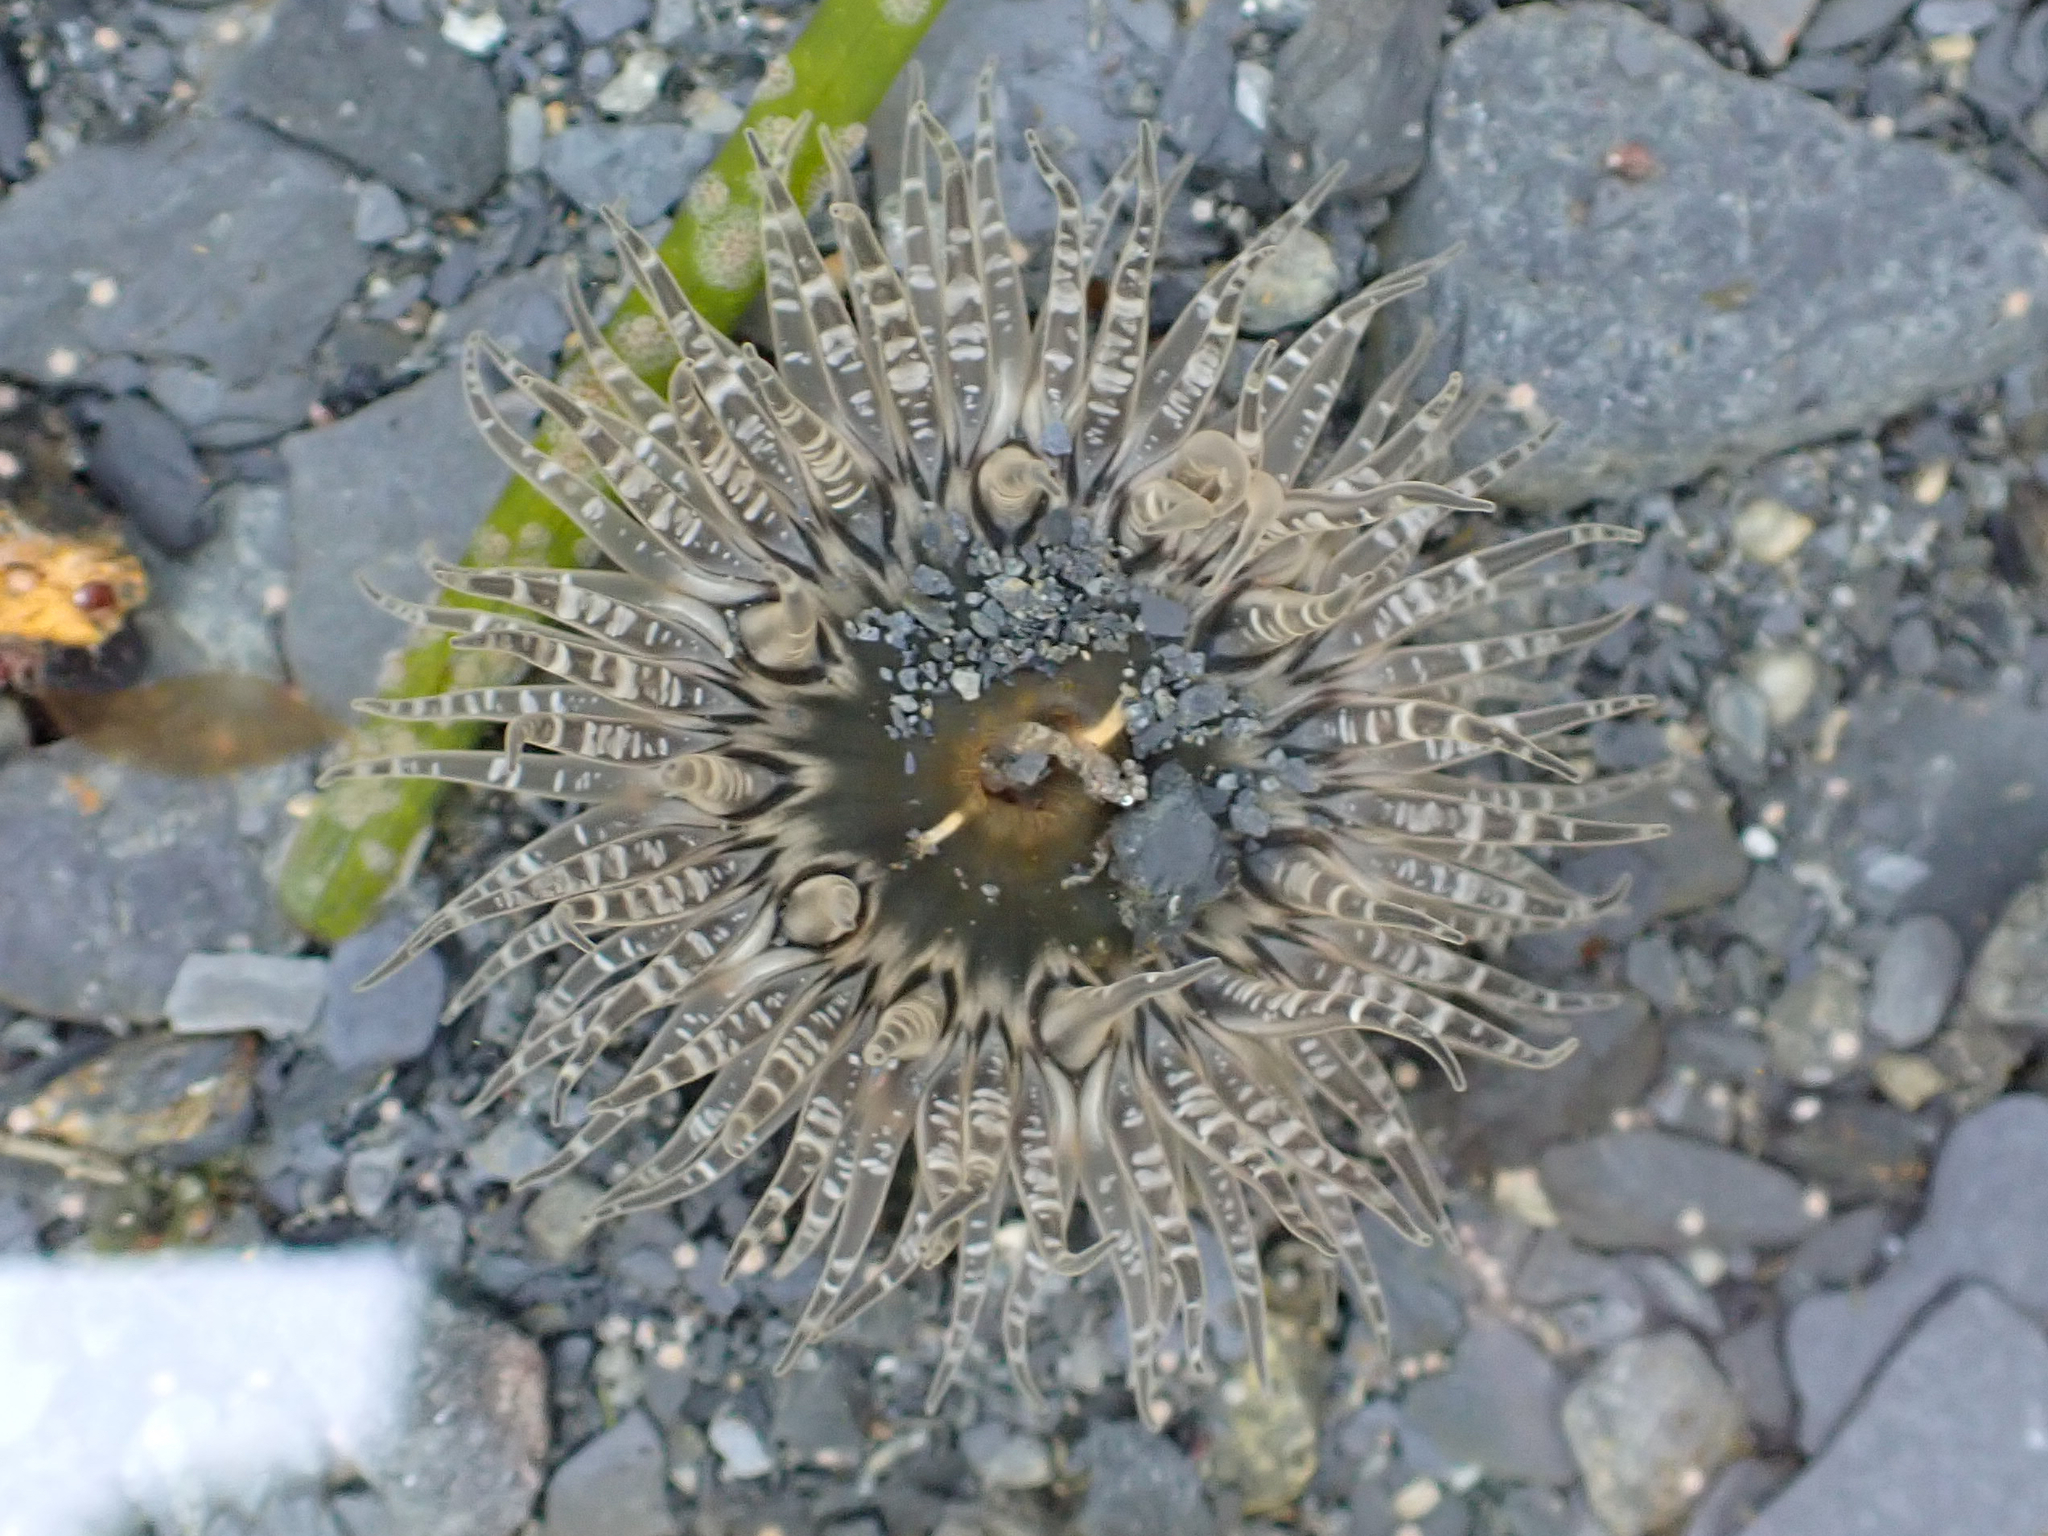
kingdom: Animalia
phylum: Cnidaria
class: Anthozoa
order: Actiniaria
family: Actiniidae
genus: Anthopleura
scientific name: Anthopleura artemisia
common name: Buried sea anemone
